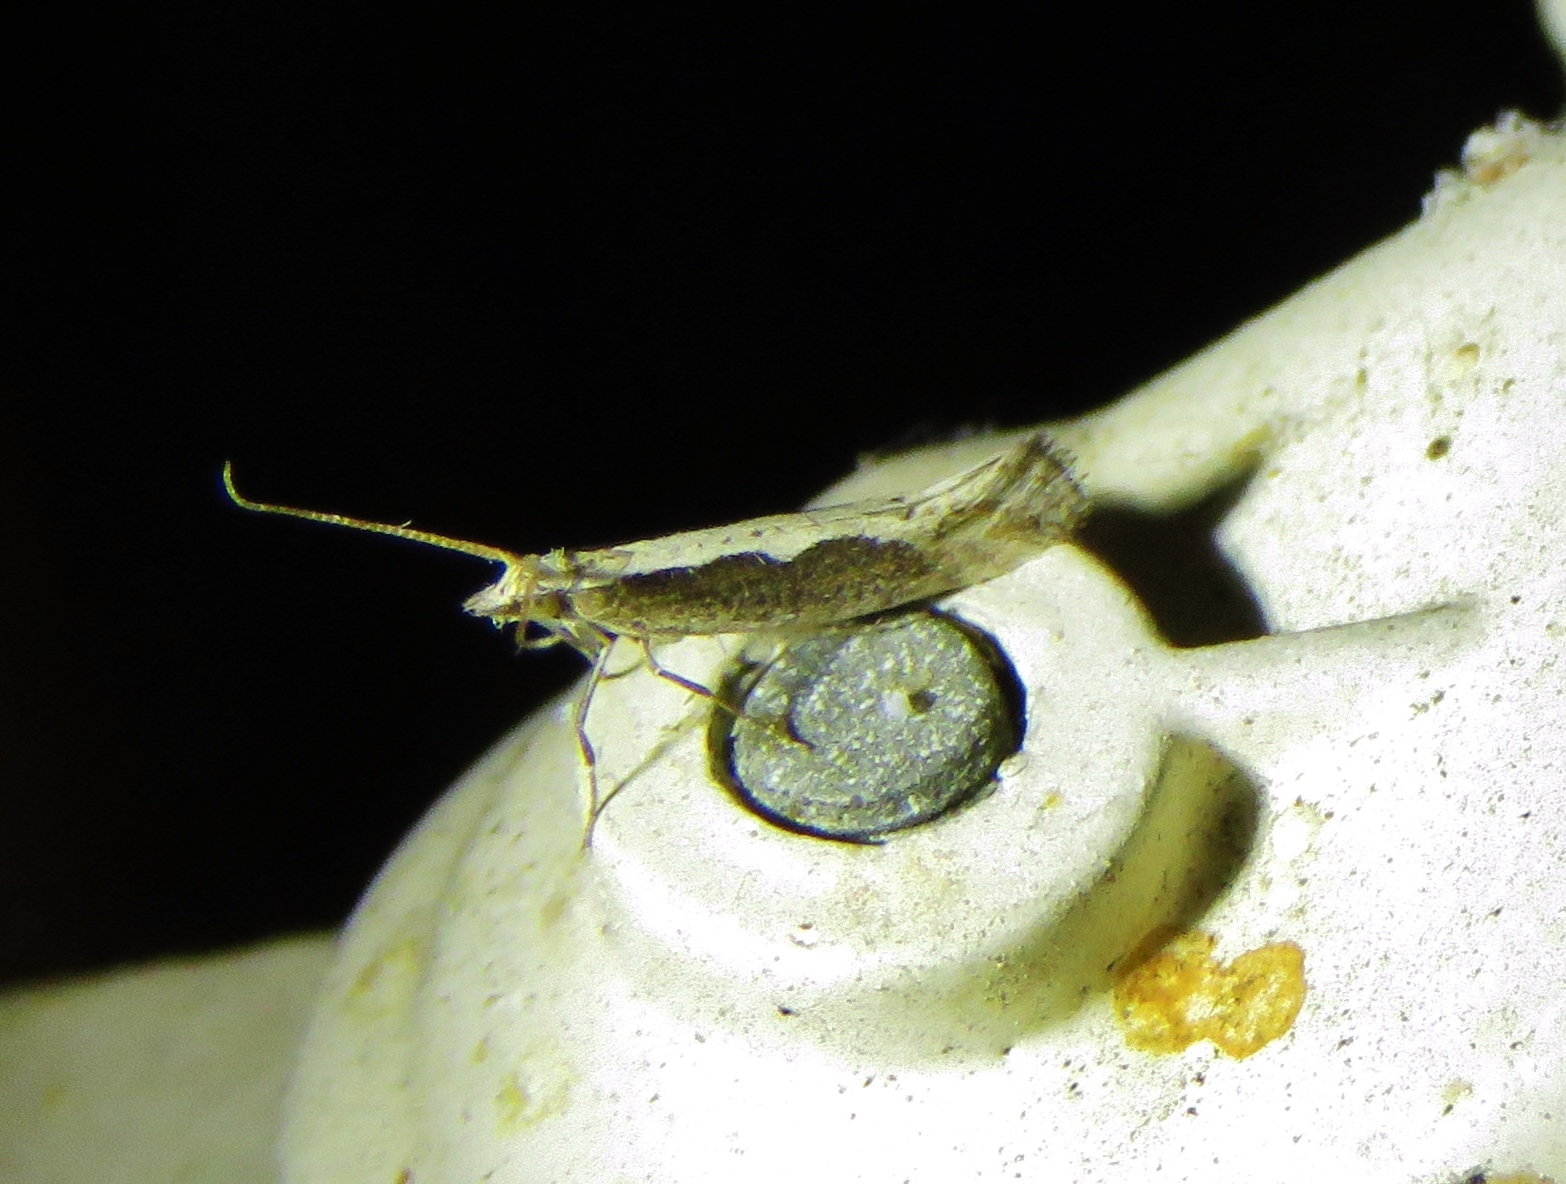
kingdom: Animalia
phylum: Arthropoda
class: Insecta
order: Lepidoptera
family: Plutellidae
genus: Plutella
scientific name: Plutella xylostella
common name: Diamond-back moth
